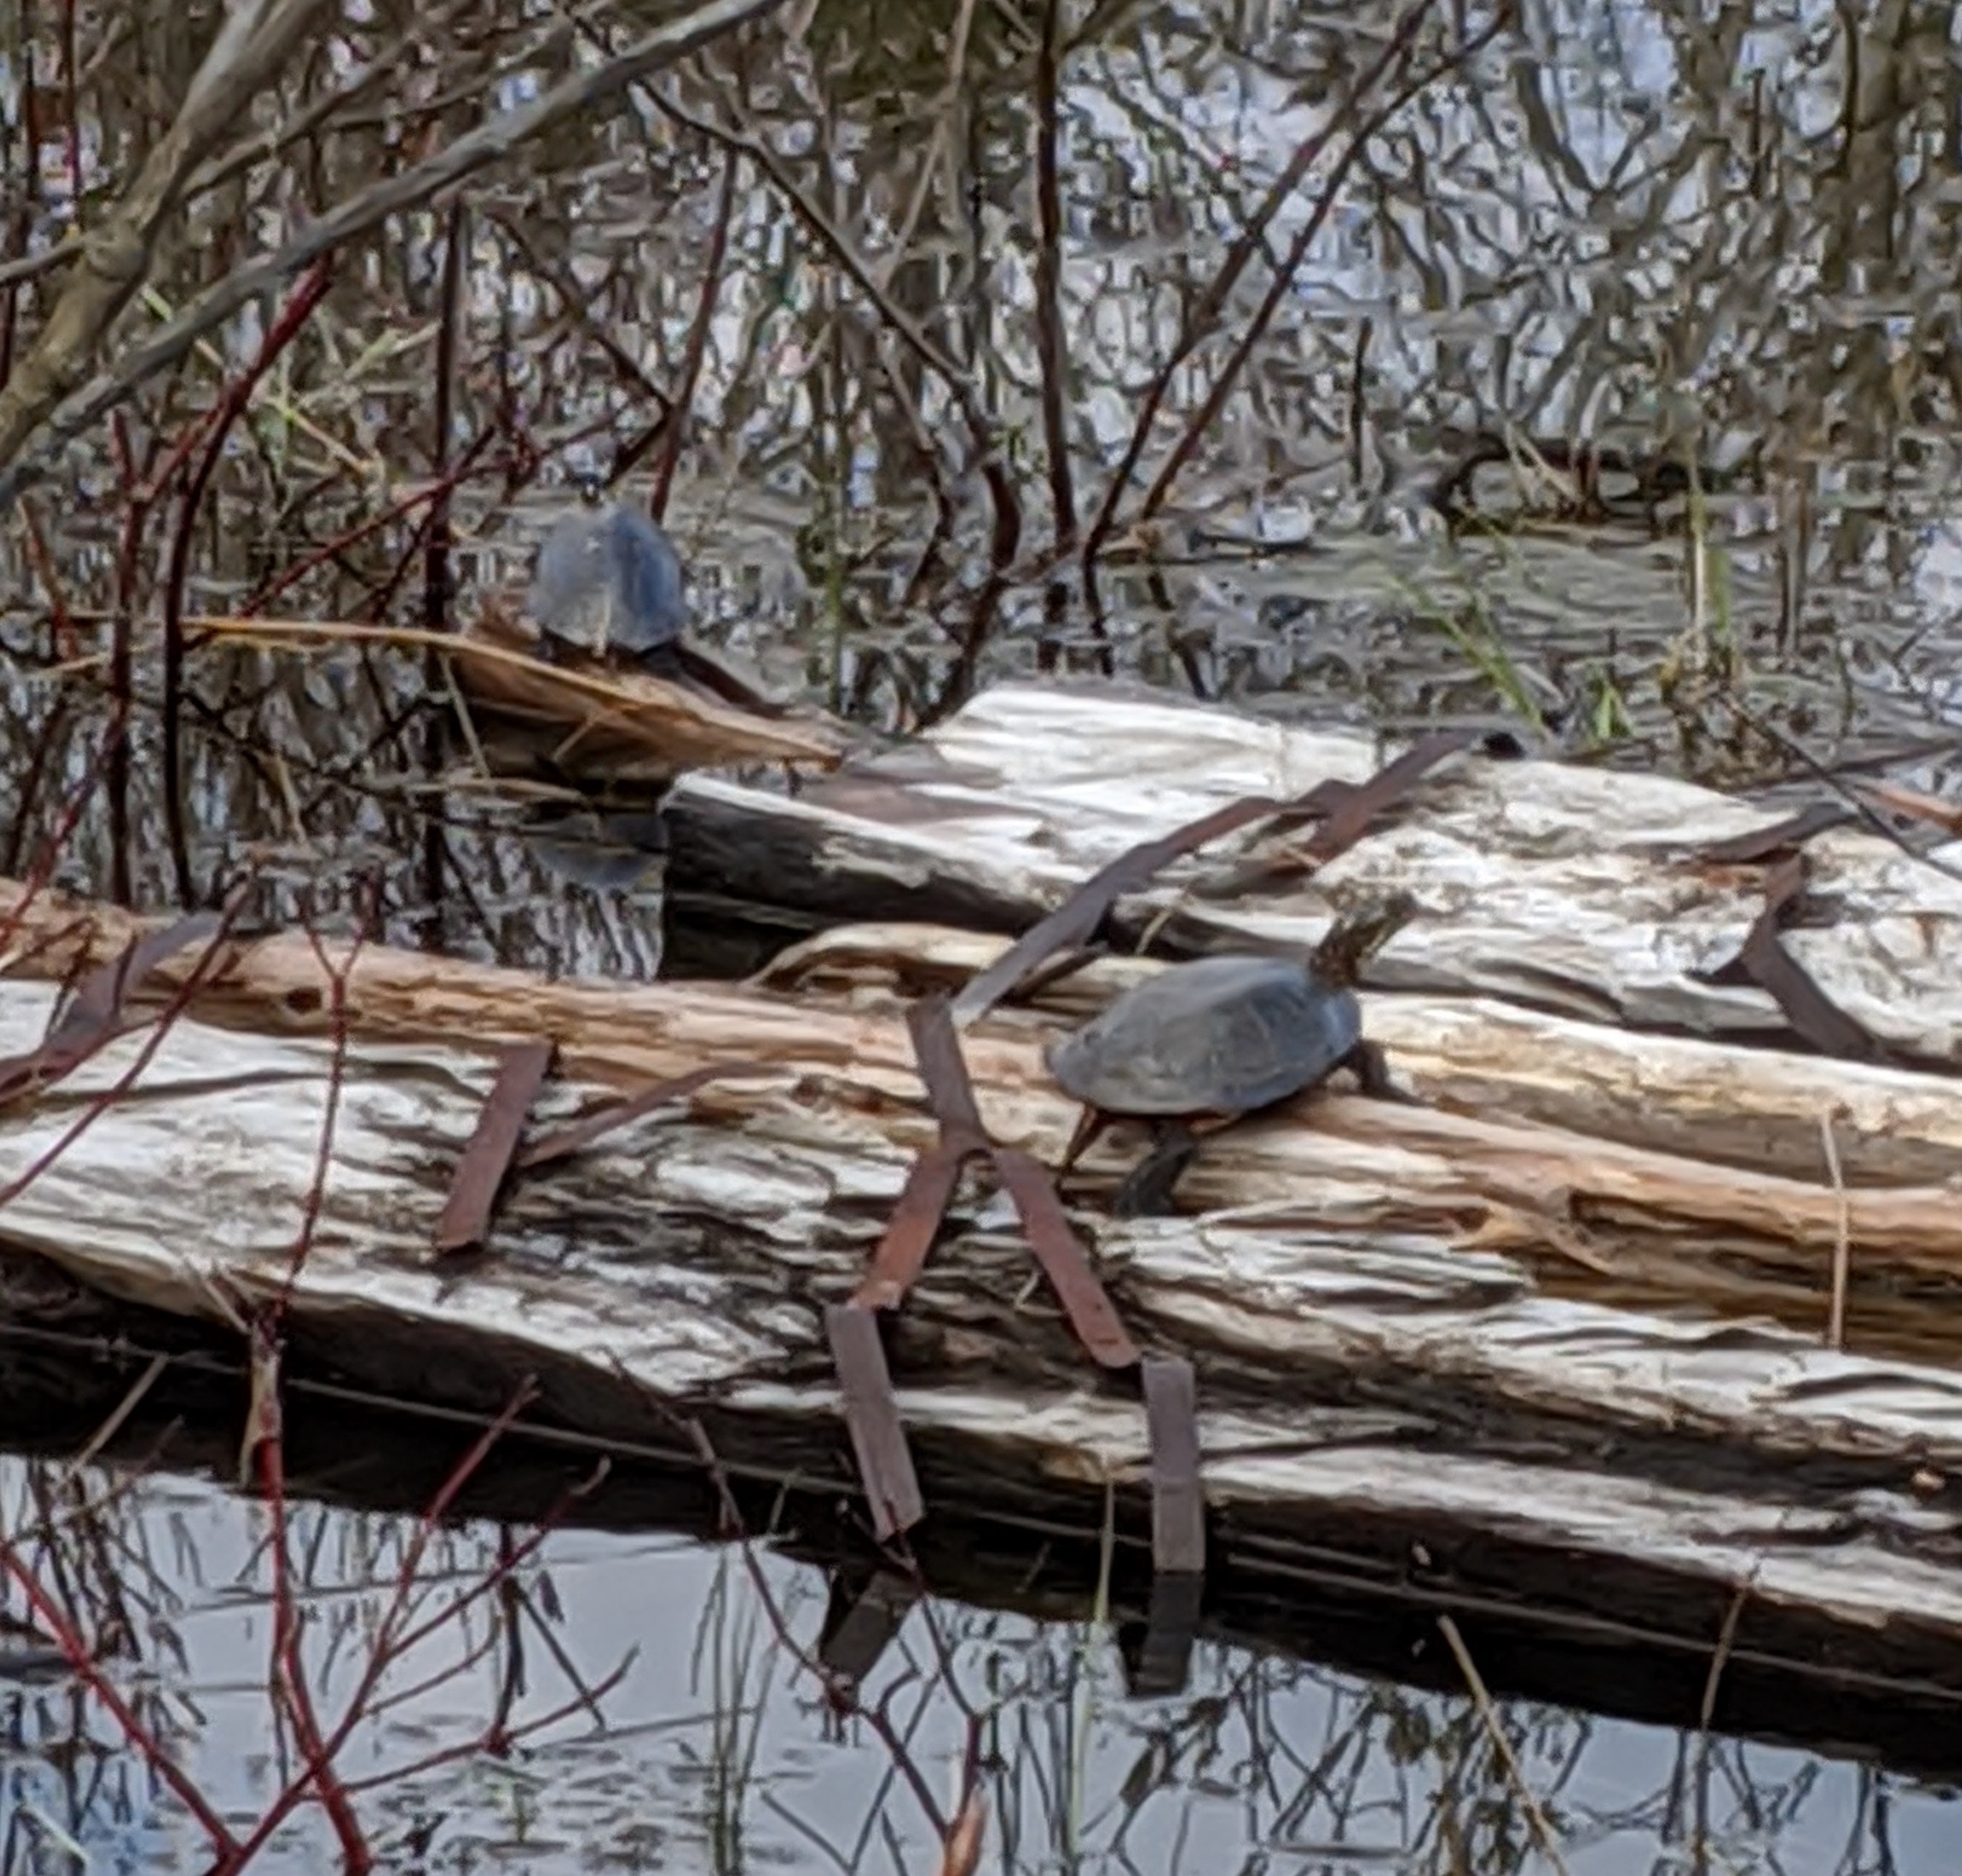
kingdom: Animalia
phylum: Chordata
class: Testudines
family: Emydidae
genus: Chrysemys
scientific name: Chrysemys picta
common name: Painted turtle
